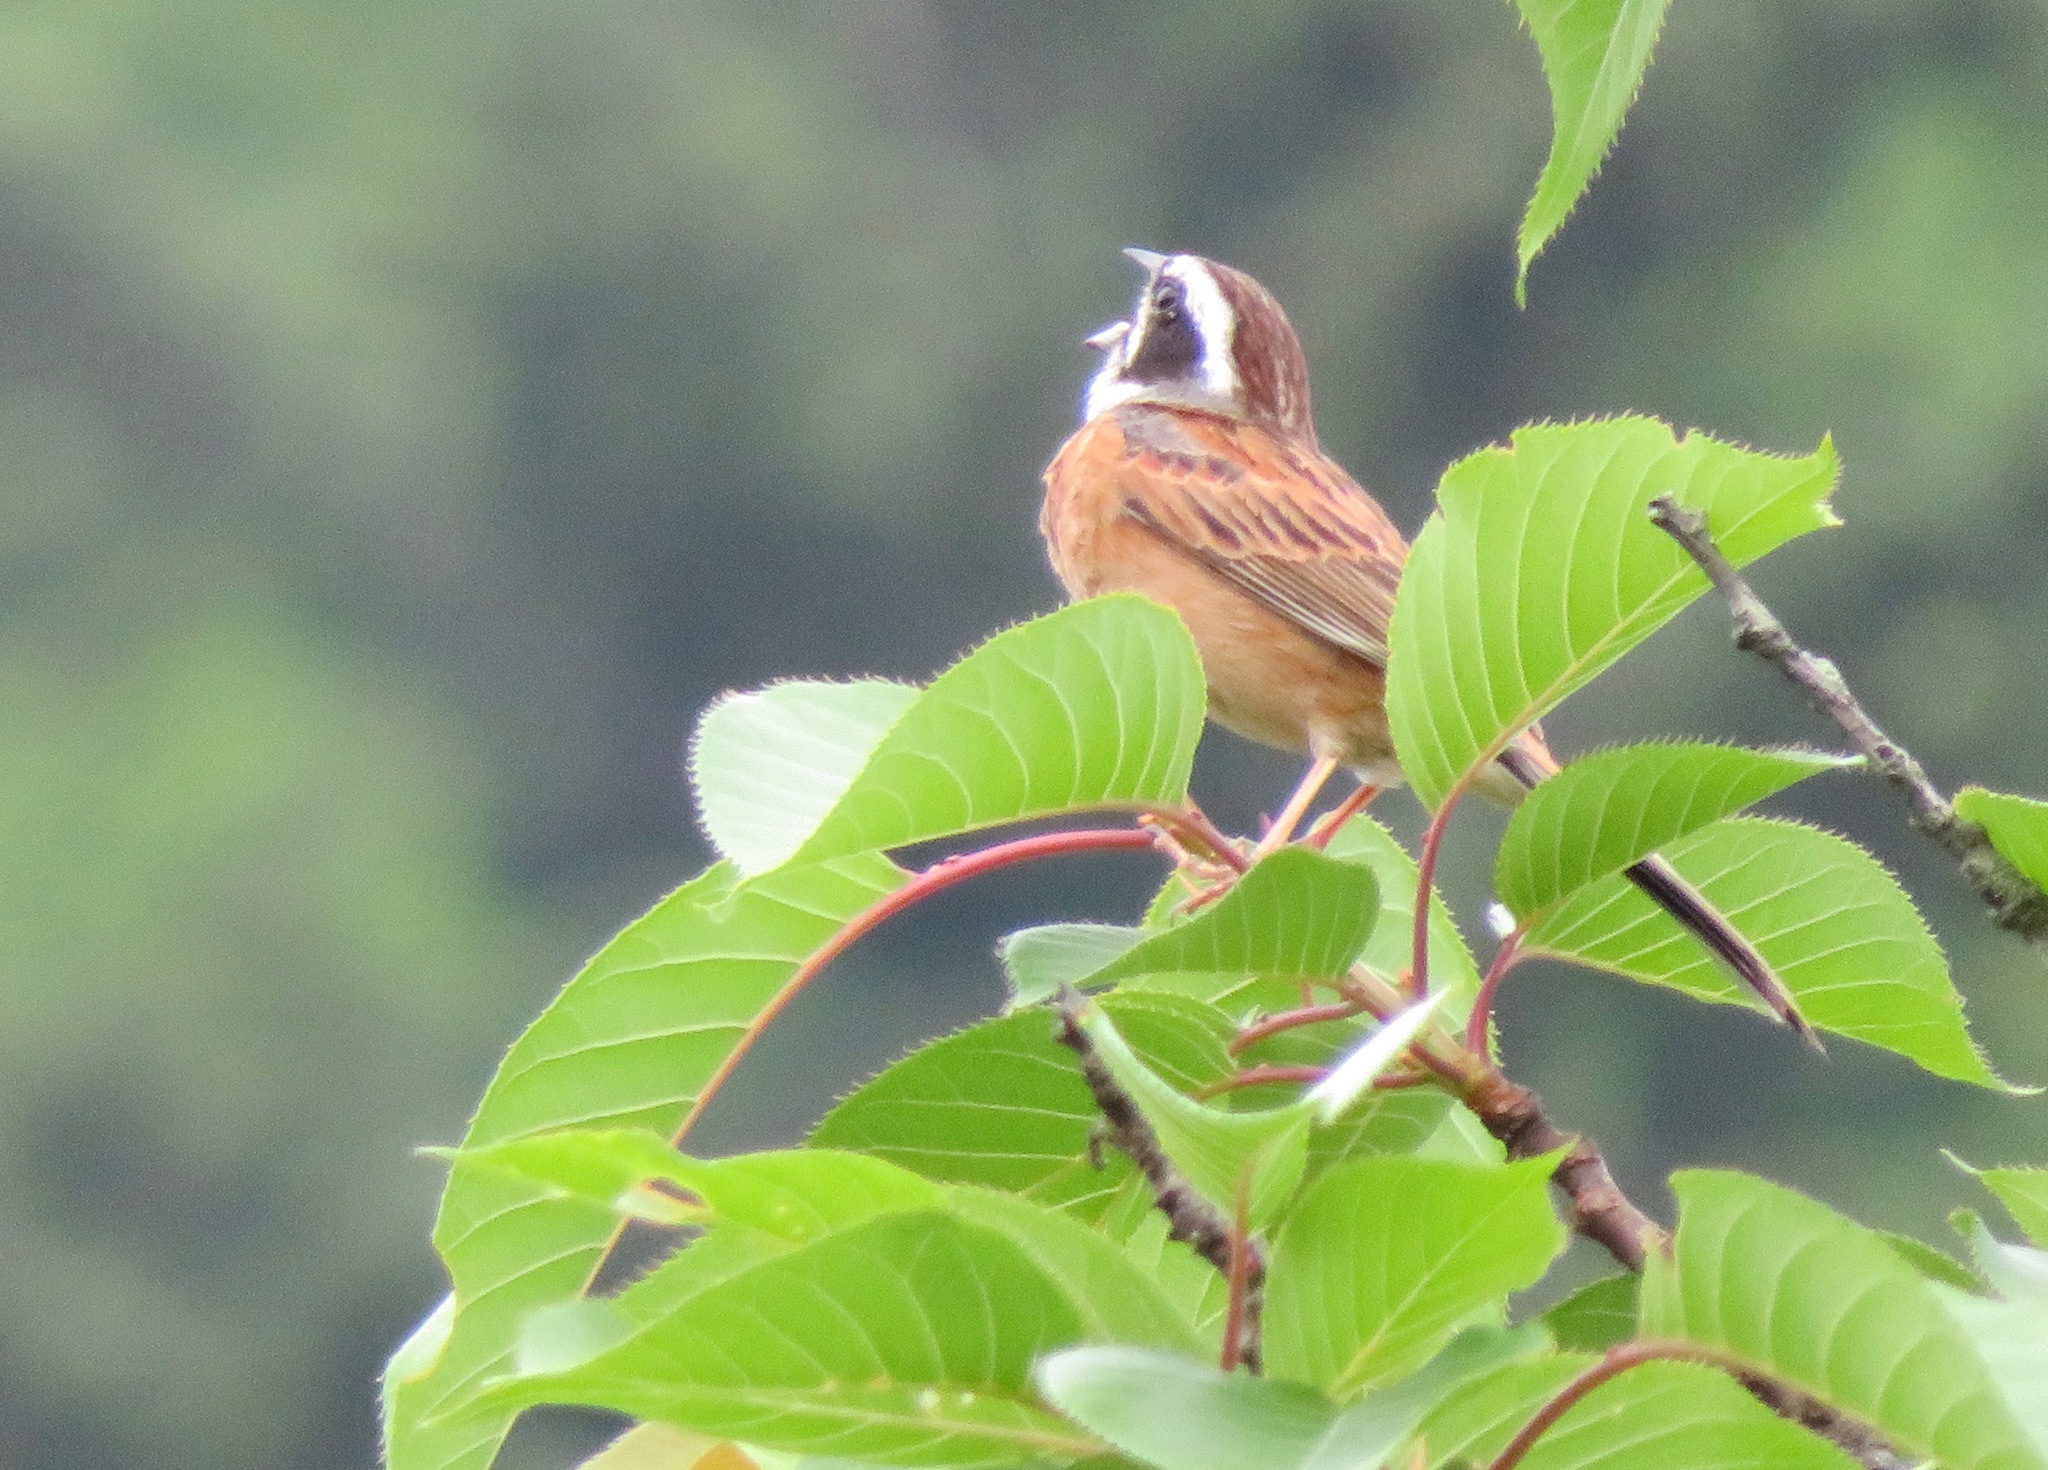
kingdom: Animalia
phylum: Chordata
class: Aves
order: Passeriformes
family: Emberizidae
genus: Emberiza
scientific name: Emberiza cioides
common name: Meadow bunting
